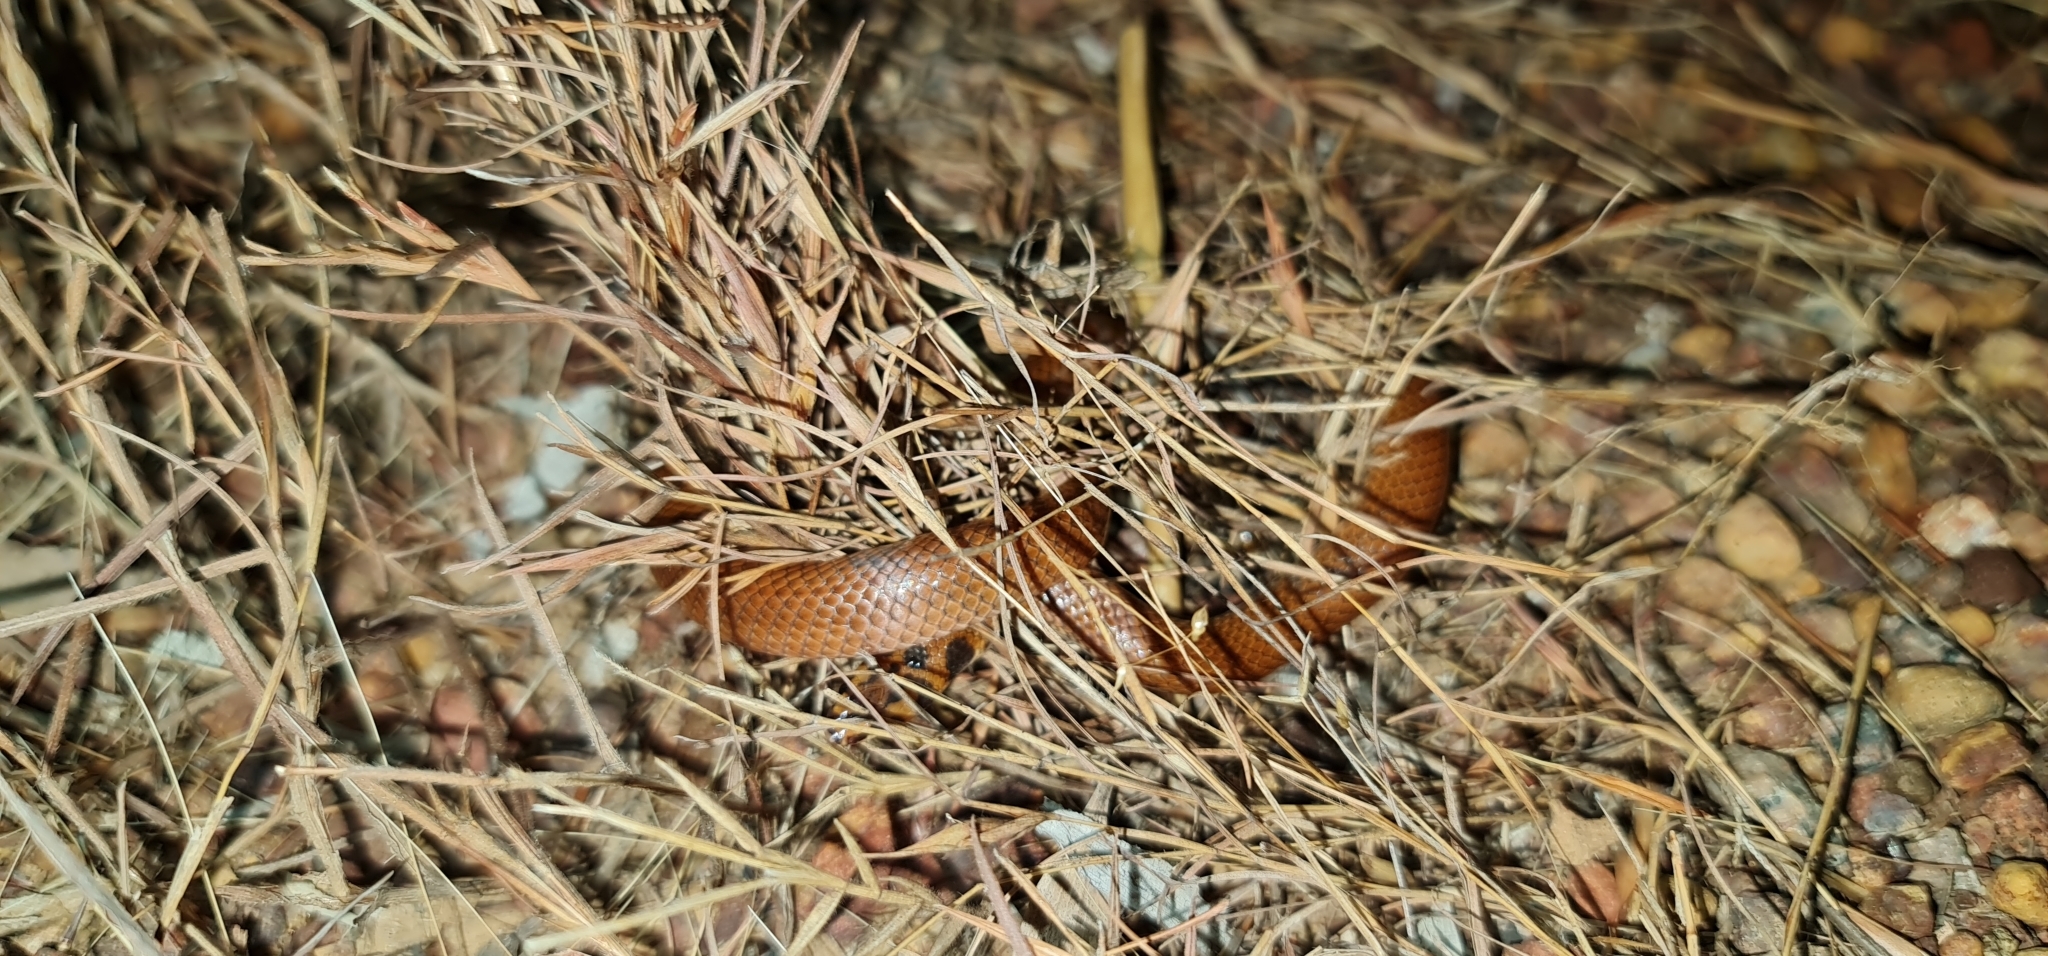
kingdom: Animalia
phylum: Chordata
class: Squamata
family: Elapidae
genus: Suta
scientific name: Suta punctata
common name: Little spotted snake
